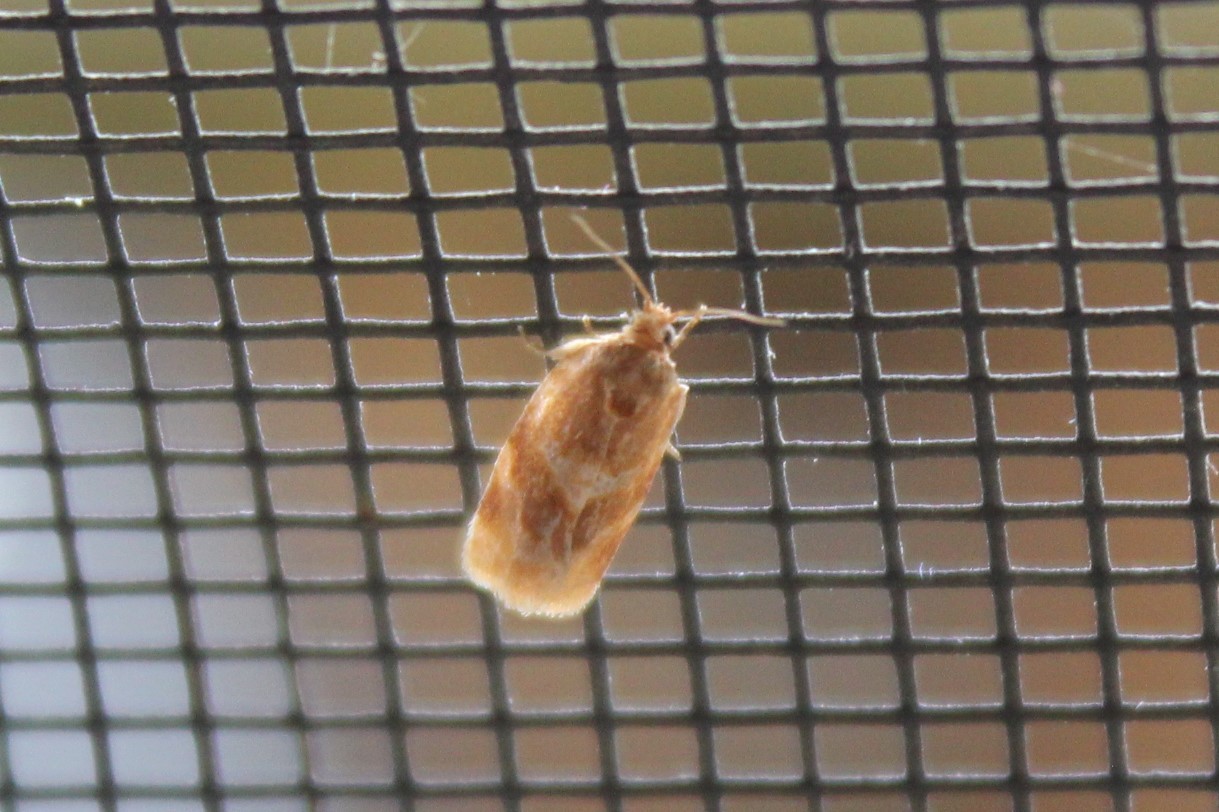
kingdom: Animalia
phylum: Arthropoda
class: Insecta
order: Lepidoptera
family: Tortricidae
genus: Argyrotaenia
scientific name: Argyrotaenia pinatubana
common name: Pine tube moth
